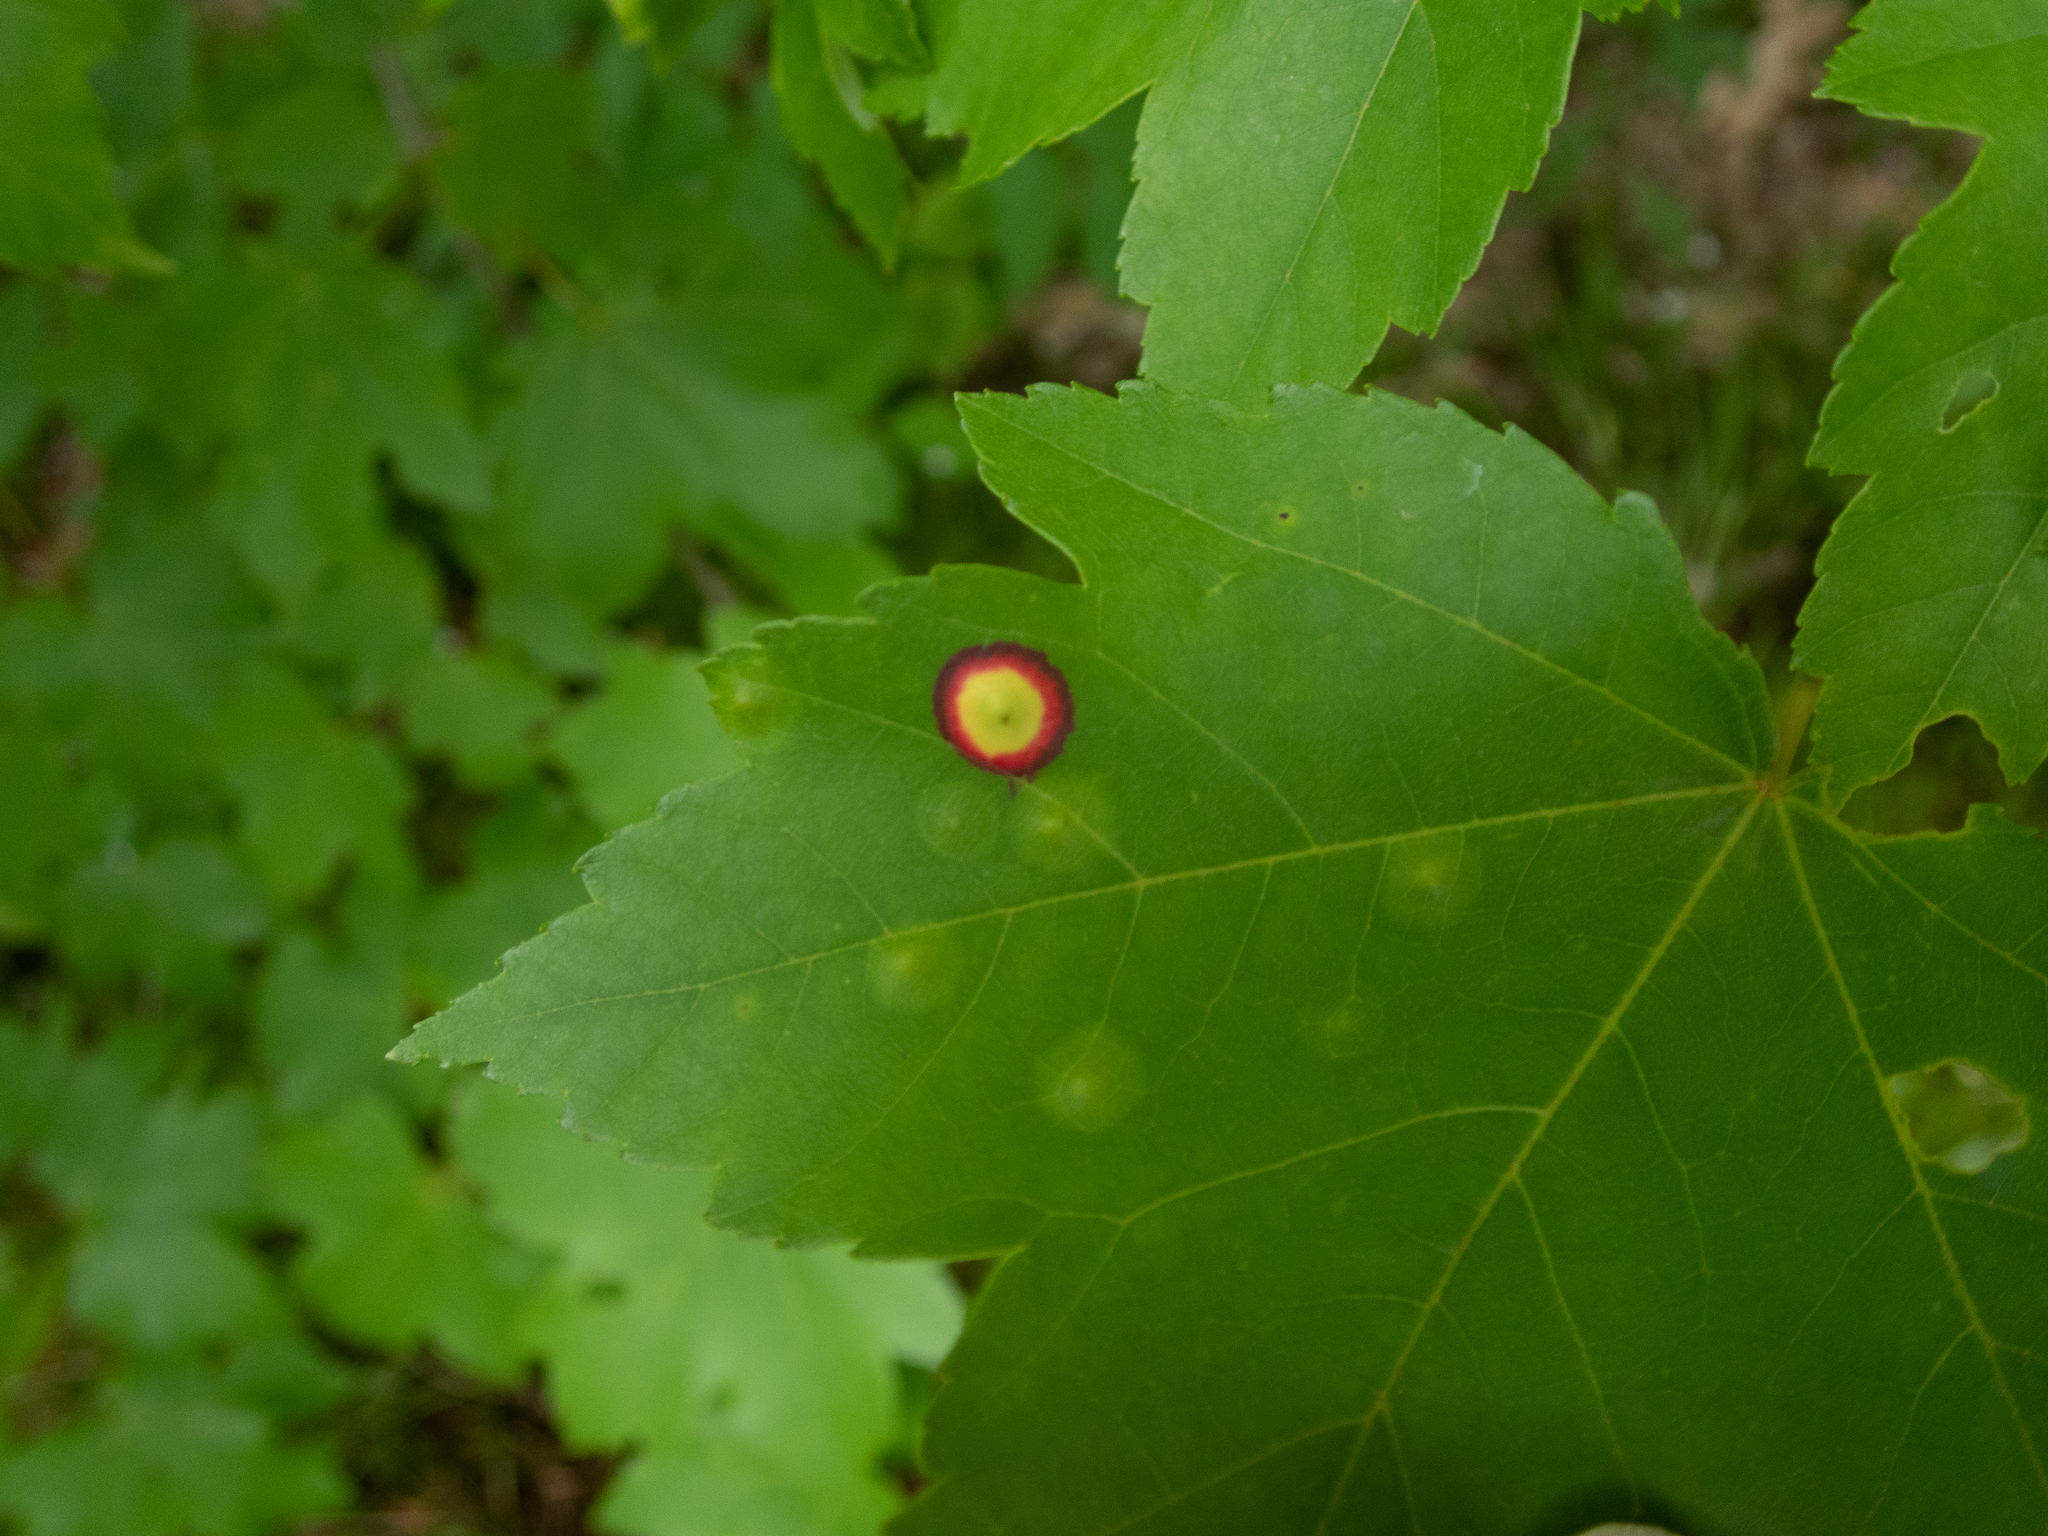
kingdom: Animalia
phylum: Arthropoda
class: Insecta
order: Diptera
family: Cecidomyiidae
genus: Acericecis
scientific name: Acericecis ocellaris
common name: Ocellate gall midge
